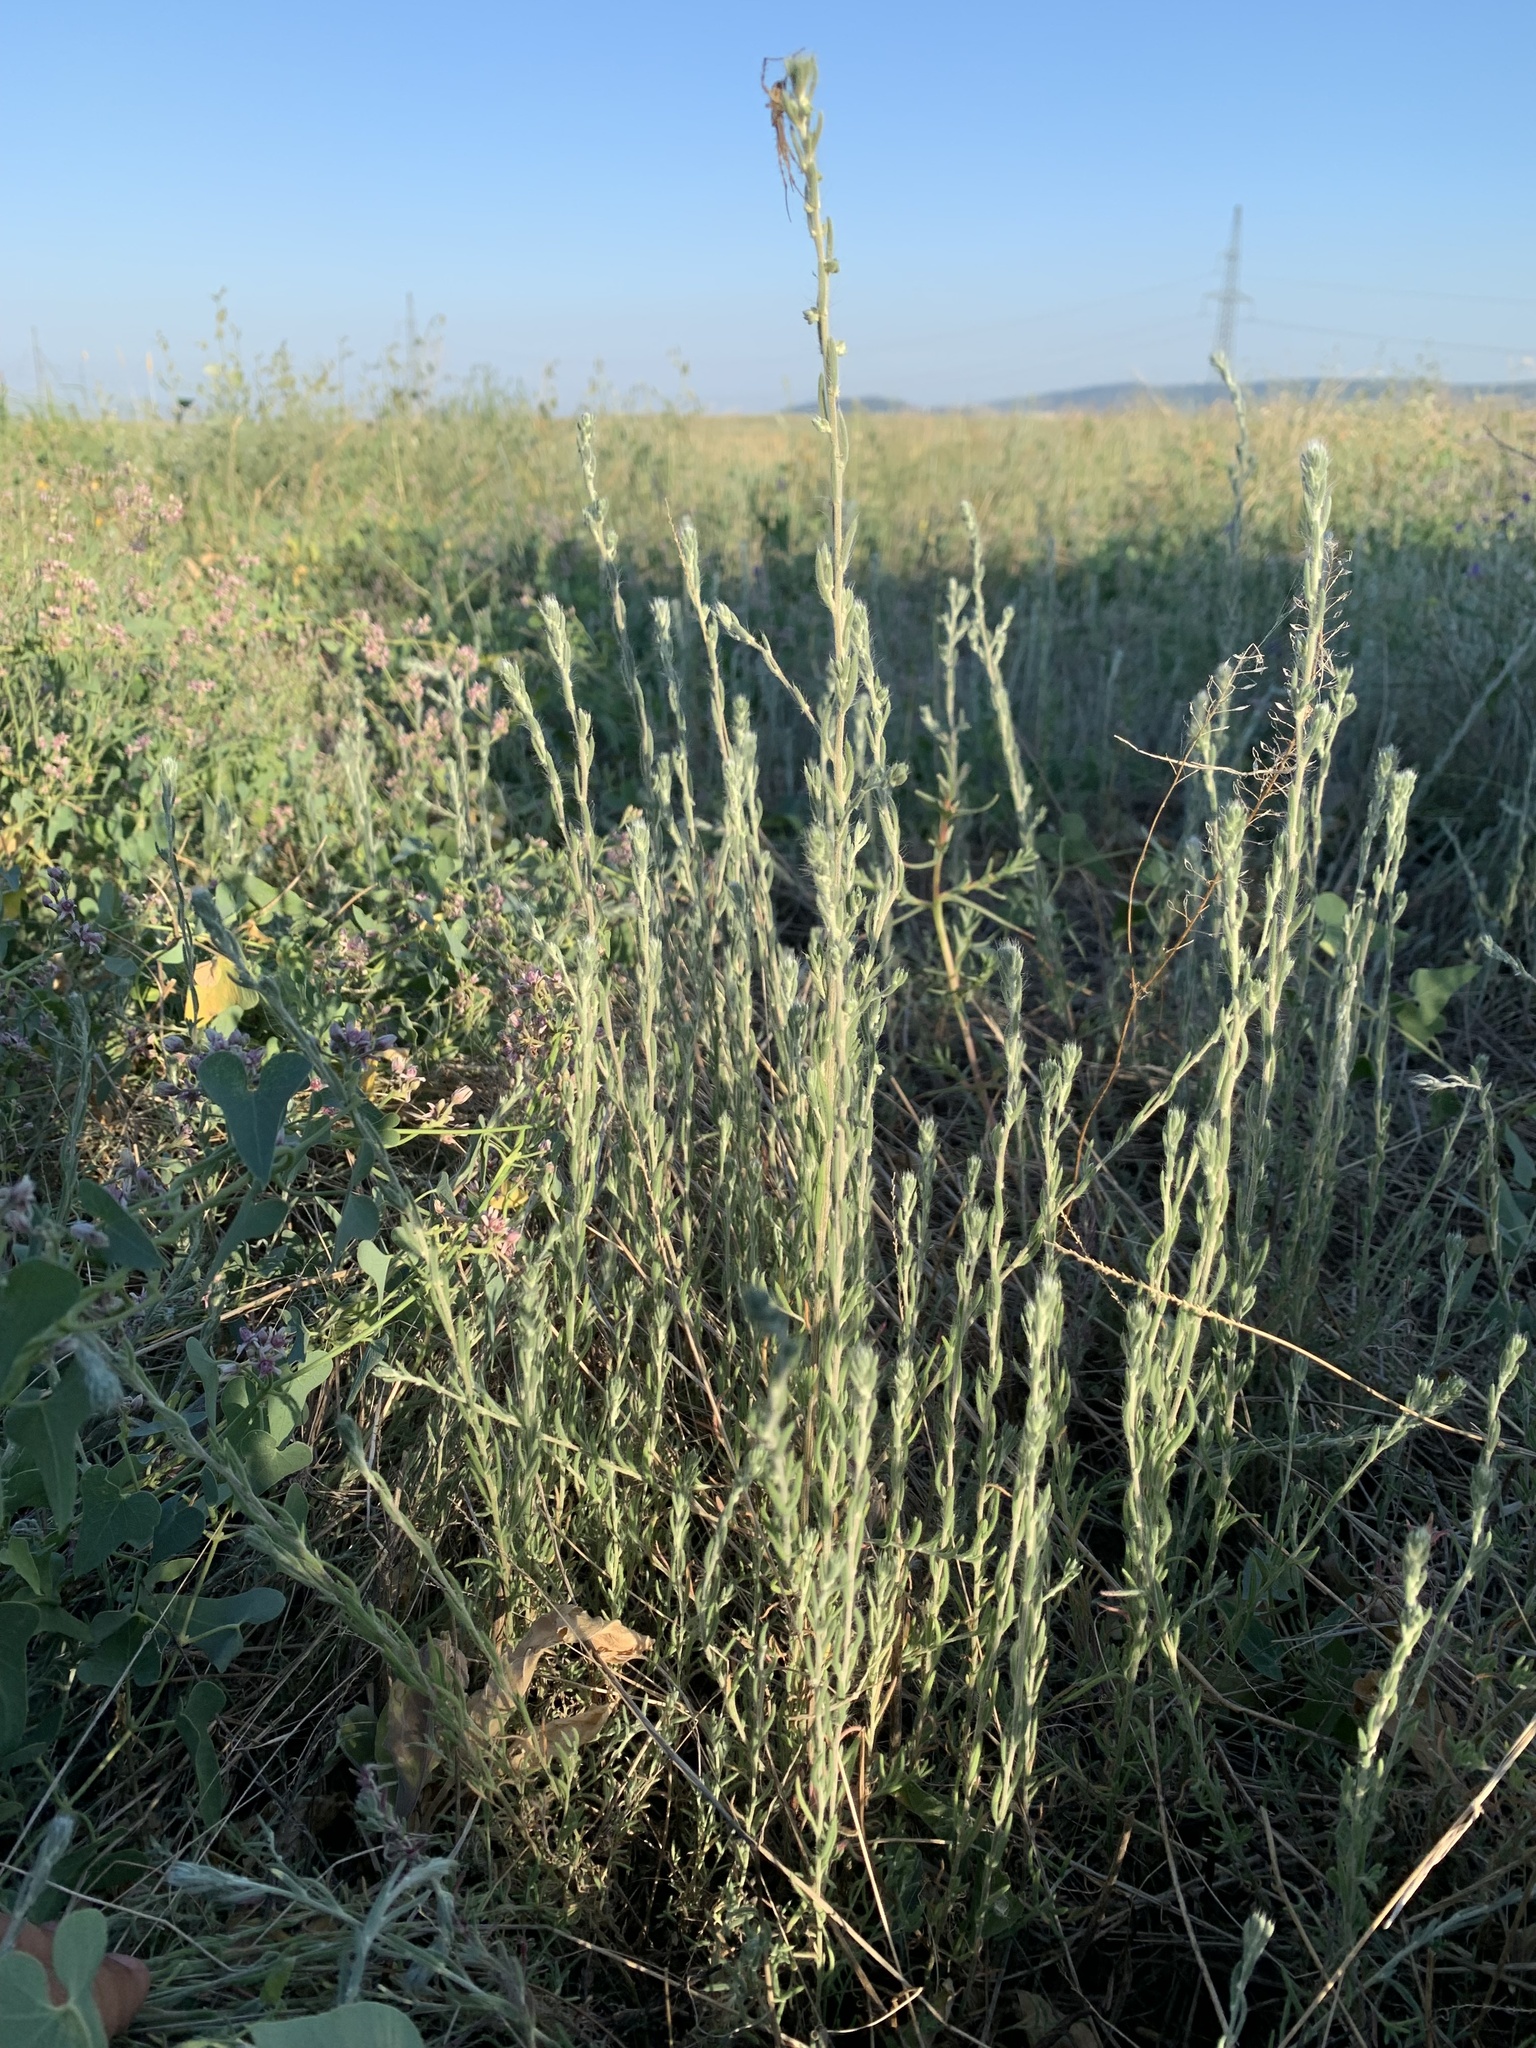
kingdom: Plantae
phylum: Tracheophyta
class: Magnoliopsida
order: Caryophyllales
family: Amaranthaceae
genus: Sedobassia
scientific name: Sedobassia sedoides
